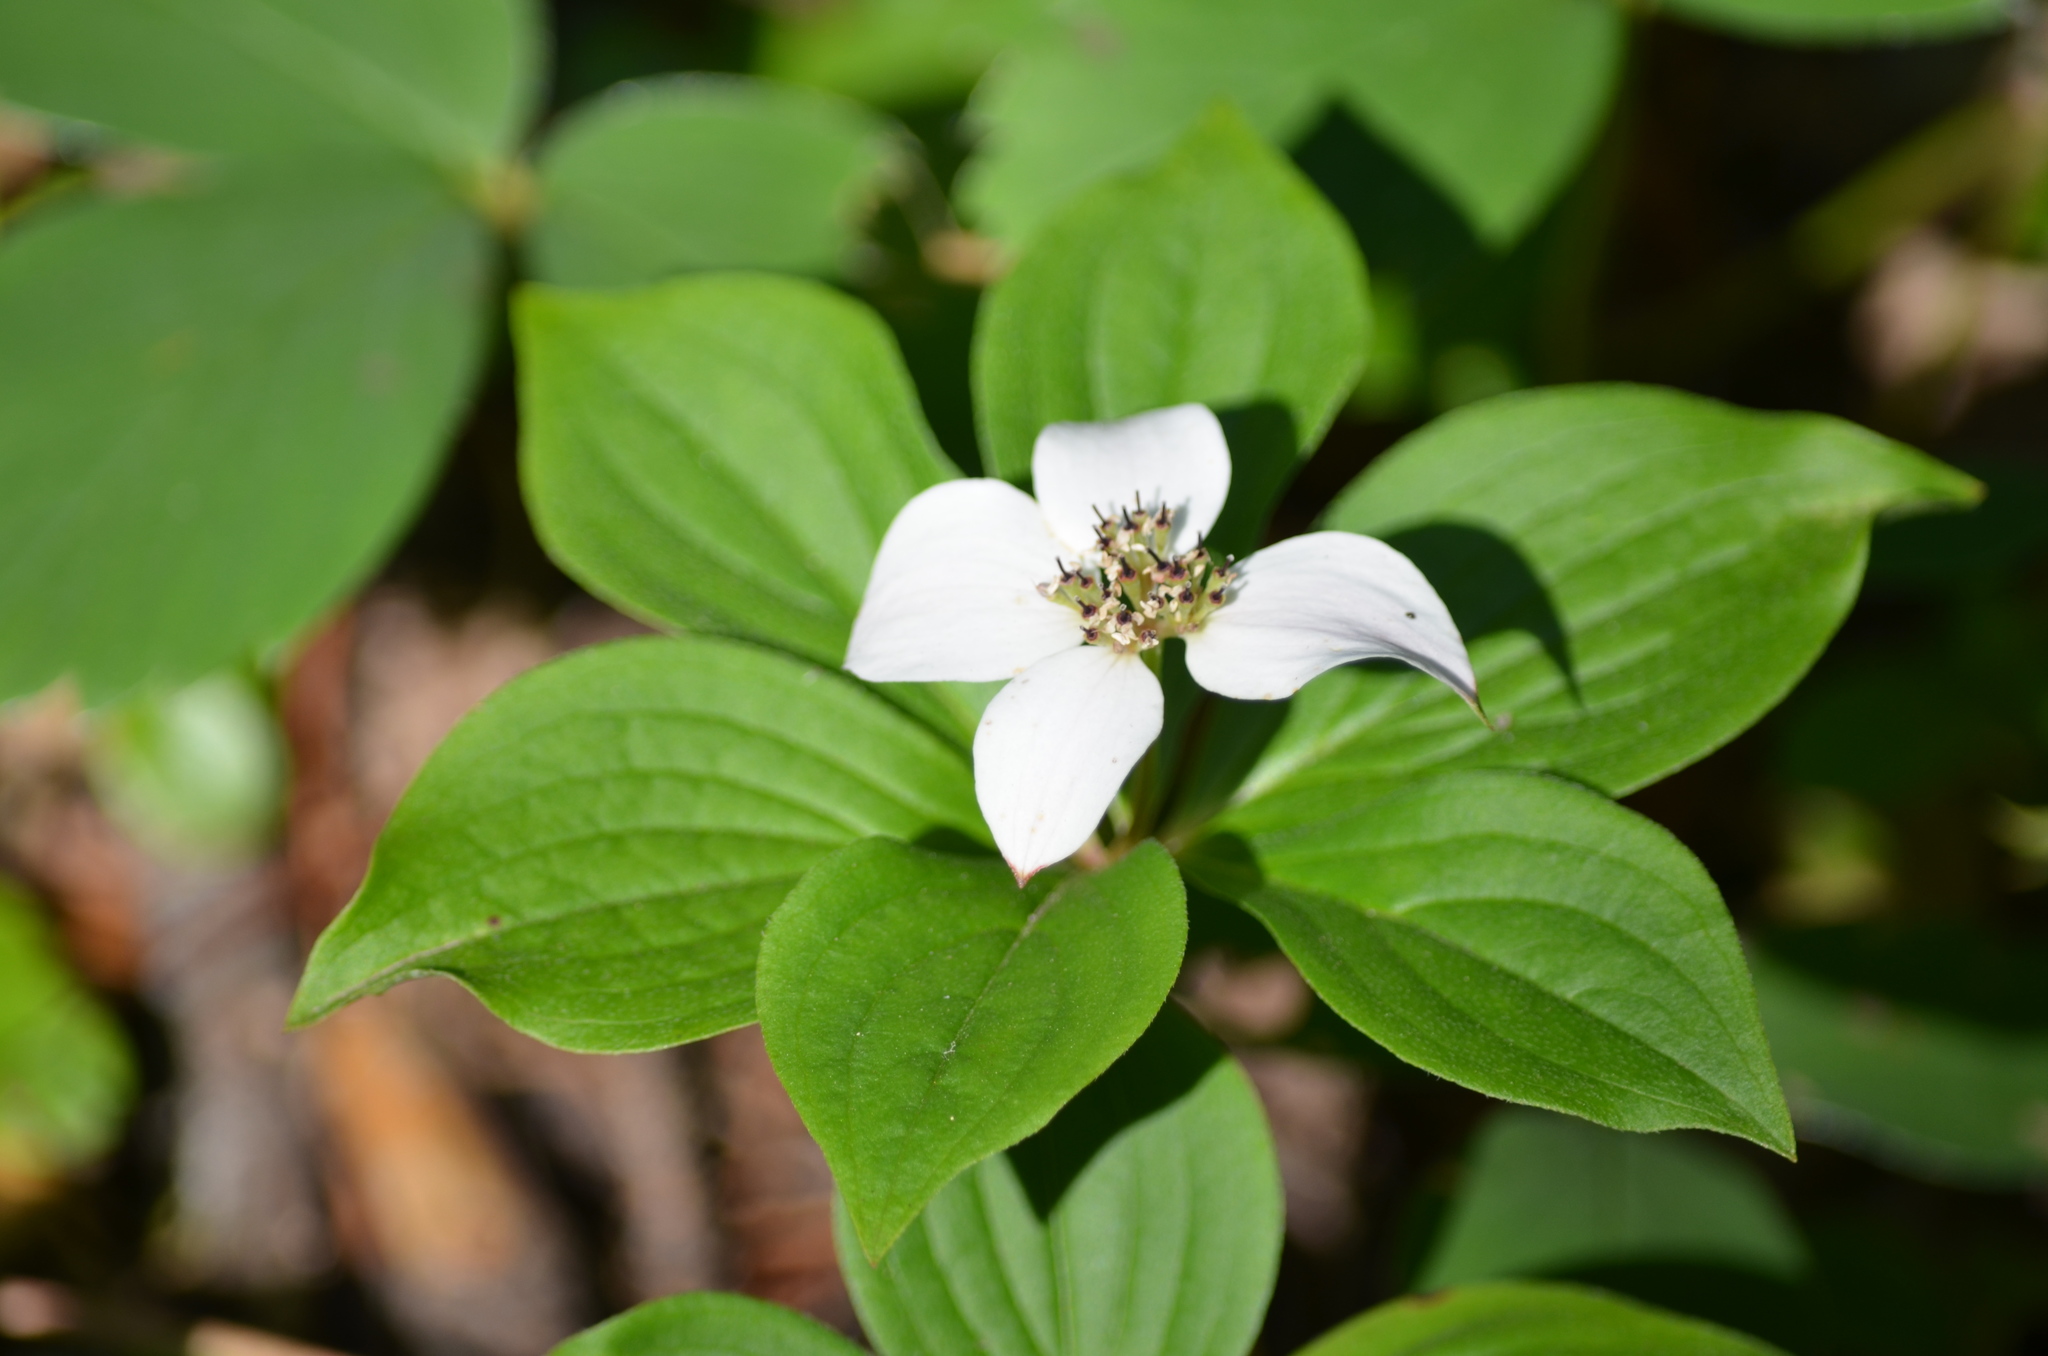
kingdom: Plantae
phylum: Tracheophyta
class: Magnoliopsida
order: Cornales
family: Cornaceae
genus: Cornus
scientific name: Cornus canadensis
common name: Creeping dogwood
